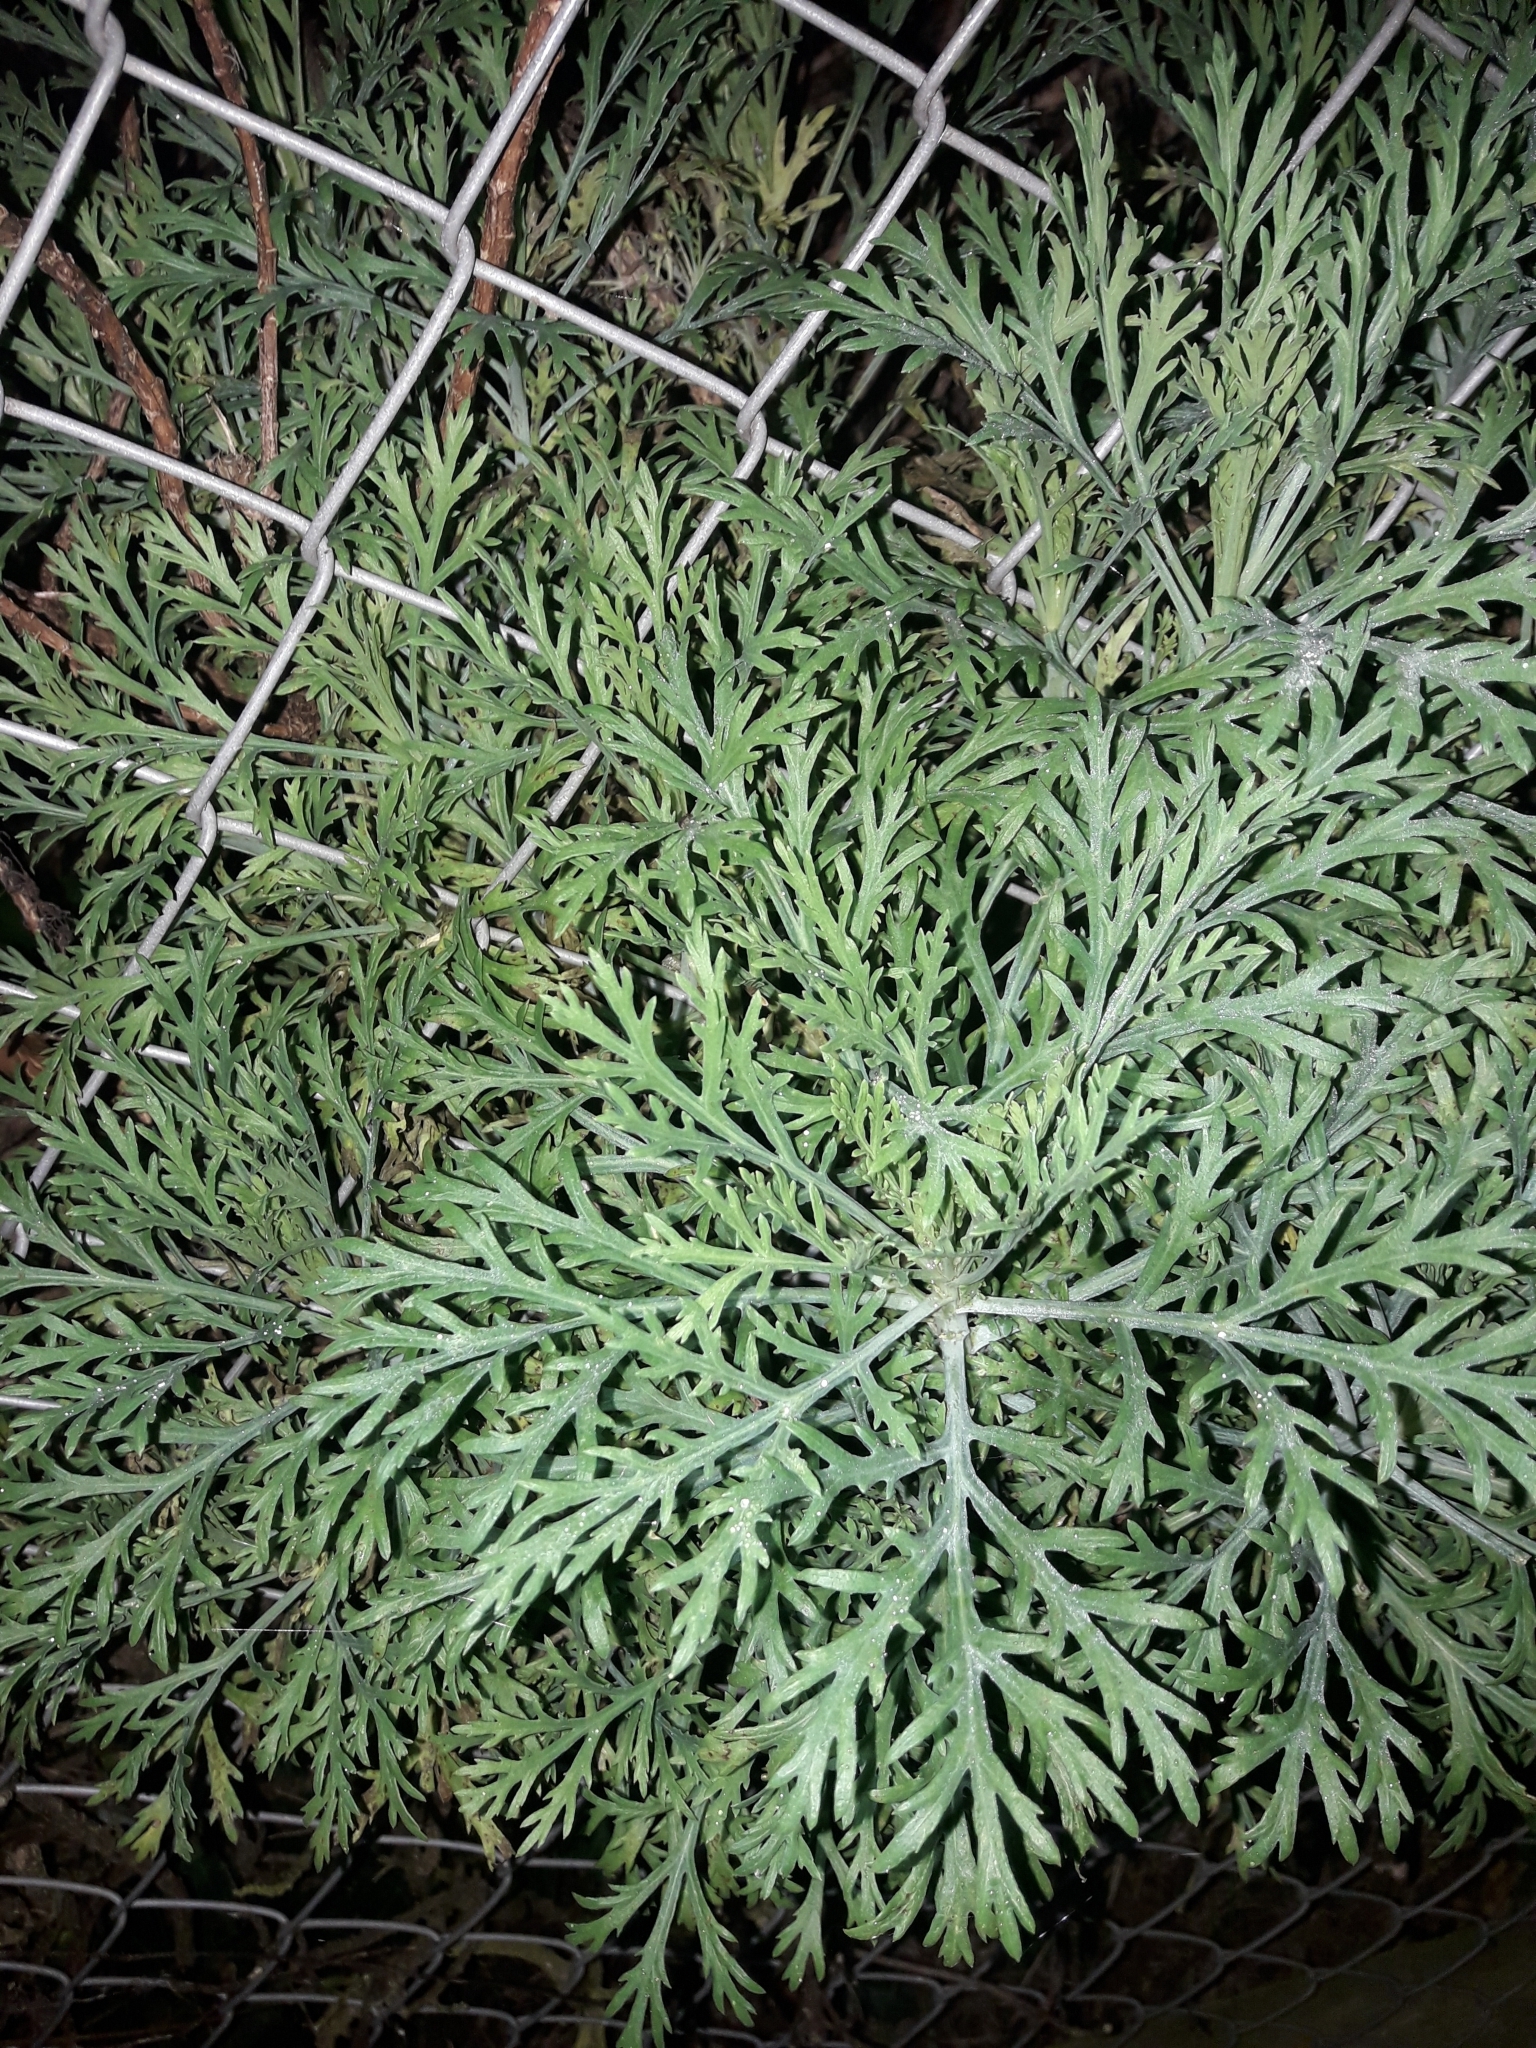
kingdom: Plantae
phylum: Tracheophyta
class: Magnoliopsida
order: Asterales
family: Asteraceae
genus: Argyranthemum
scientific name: Argyranthemum frutescens
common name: Paris daisy
